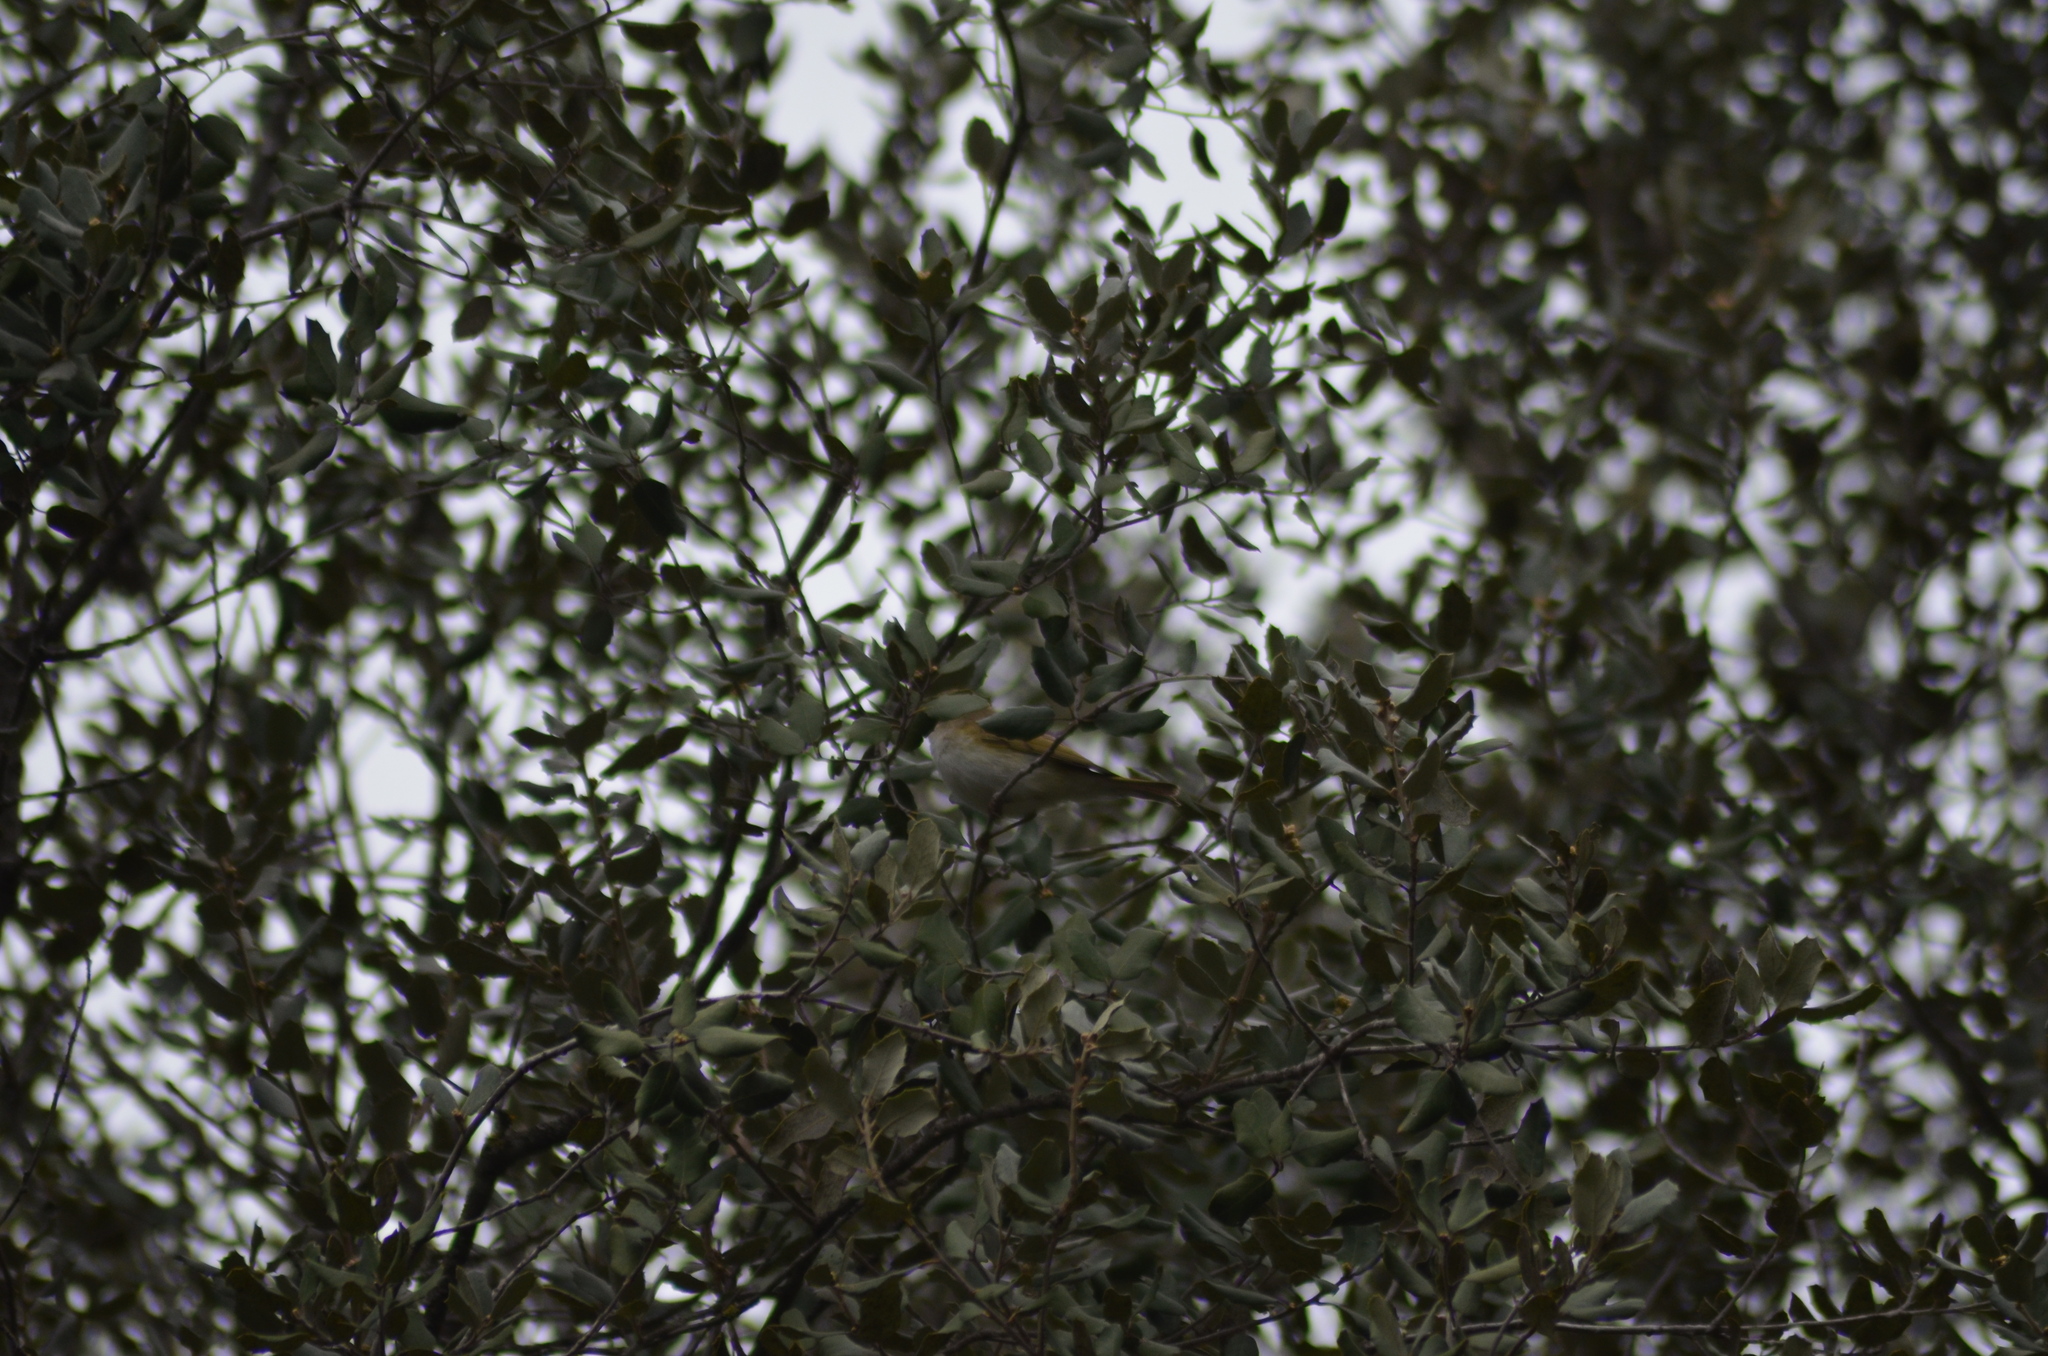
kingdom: Animalia
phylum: Chordata
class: Aves
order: Passeriformes
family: Phylloscopidae
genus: Phylloscopus
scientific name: Phylloscopus bonelli
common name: Western bonelli's warbler
